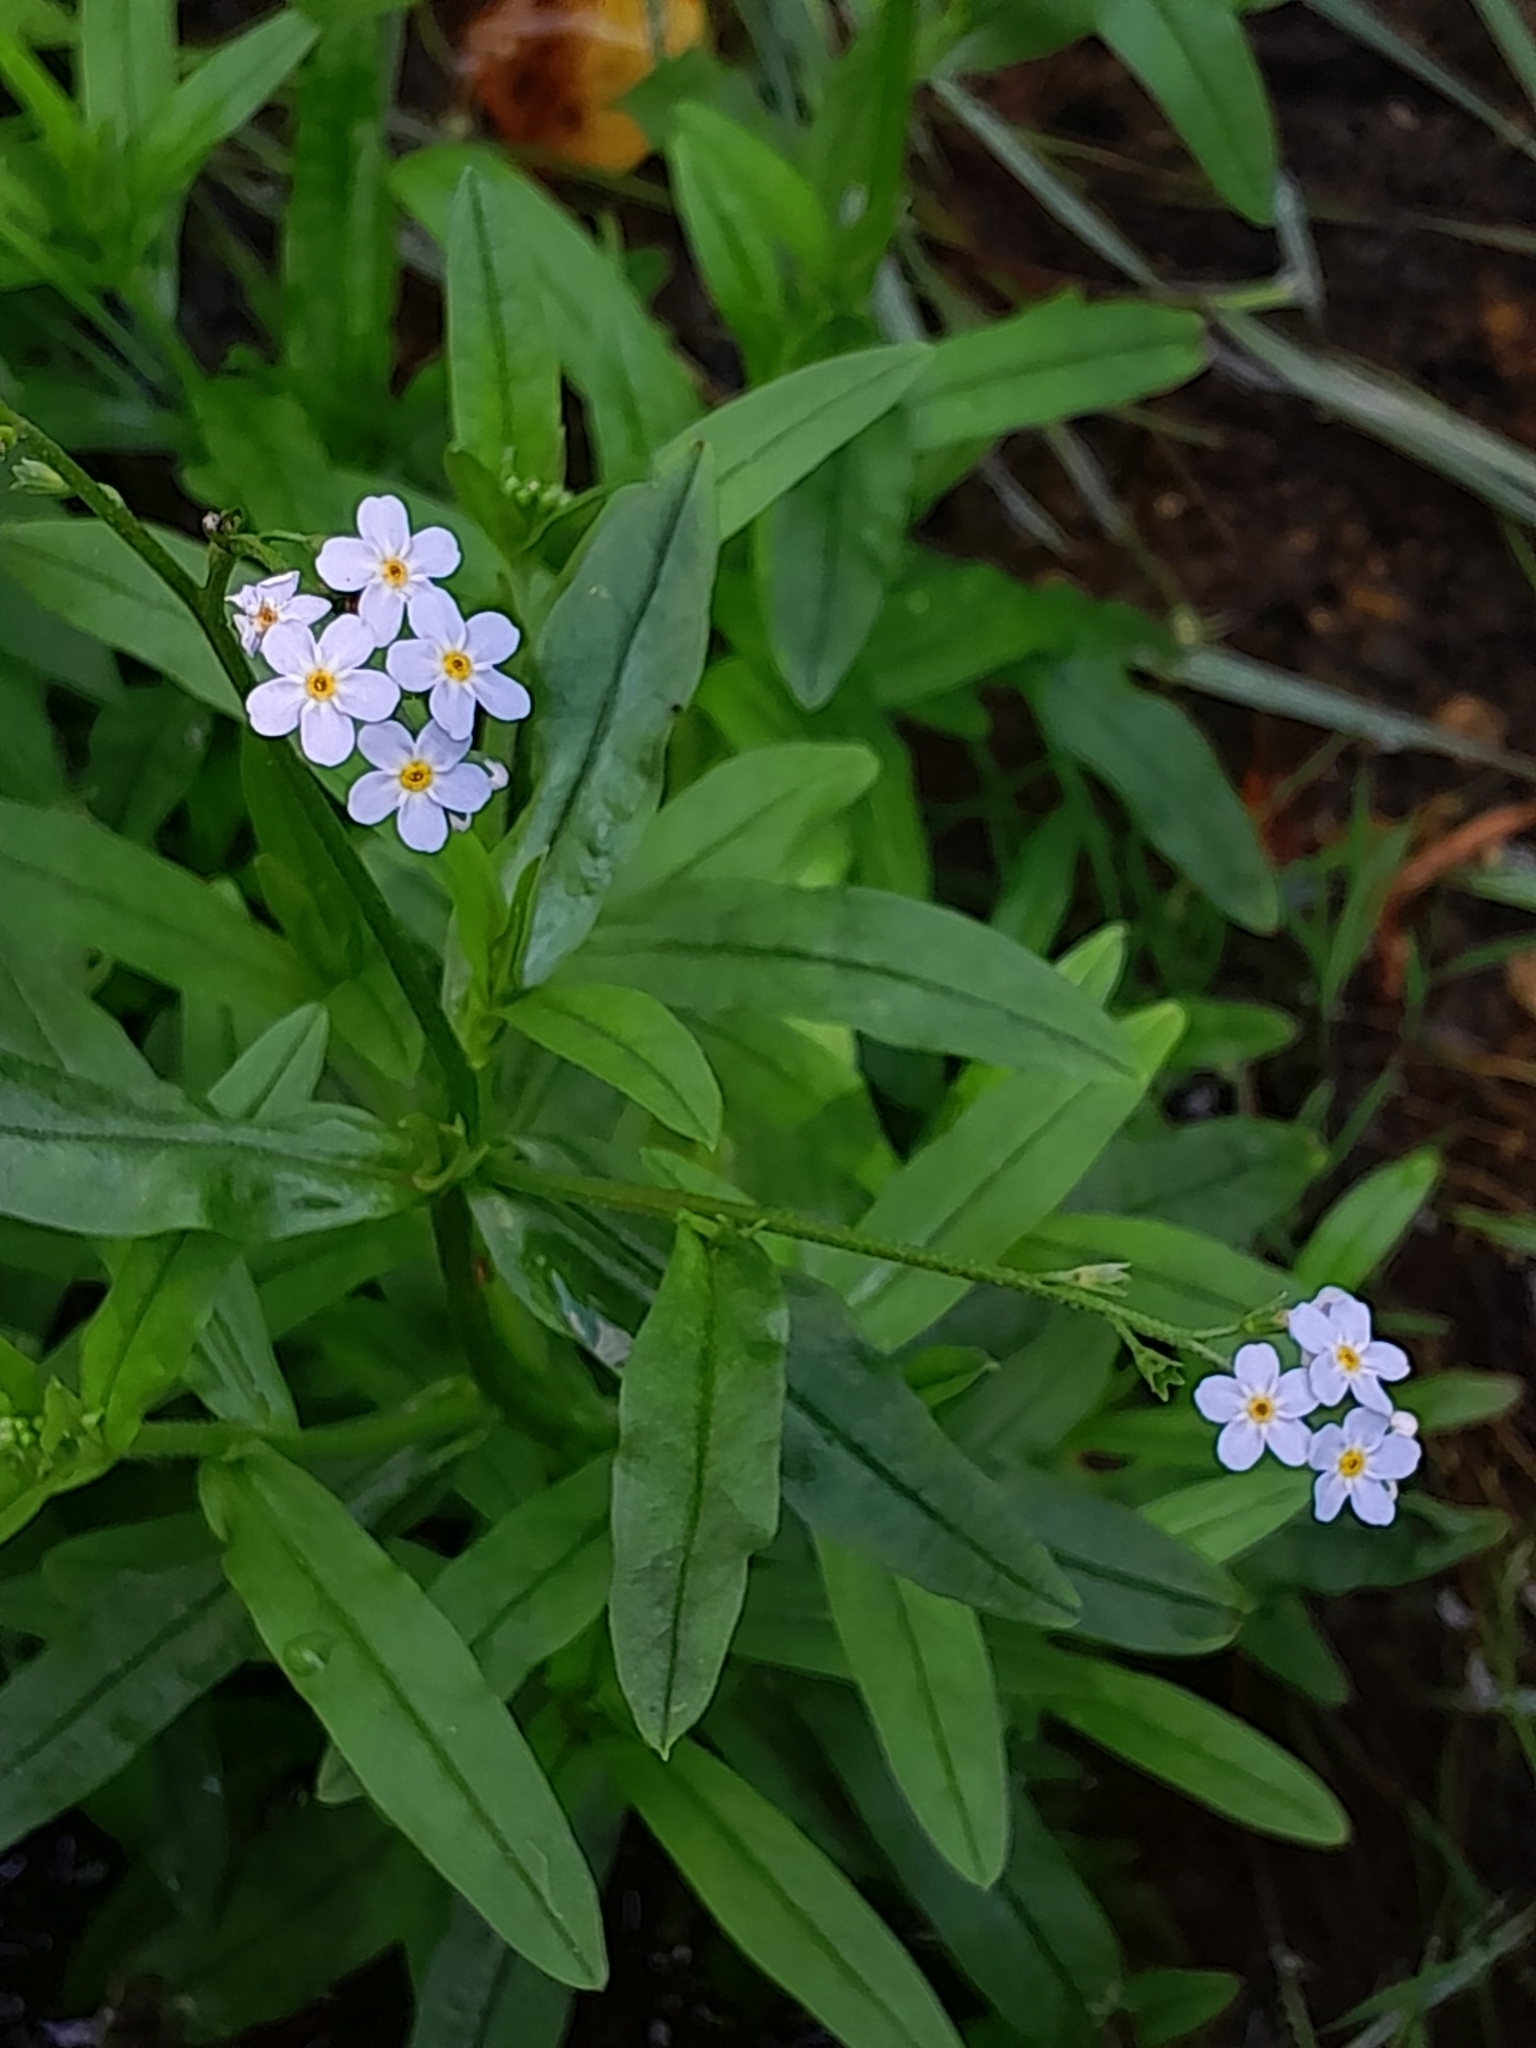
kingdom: Plantae
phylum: Tracheophyta
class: Magnoliopsida
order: Boraginales
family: Boraginaceae
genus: Myosotis
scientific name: Myosotis scorpioides
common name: Water forget-me-not
